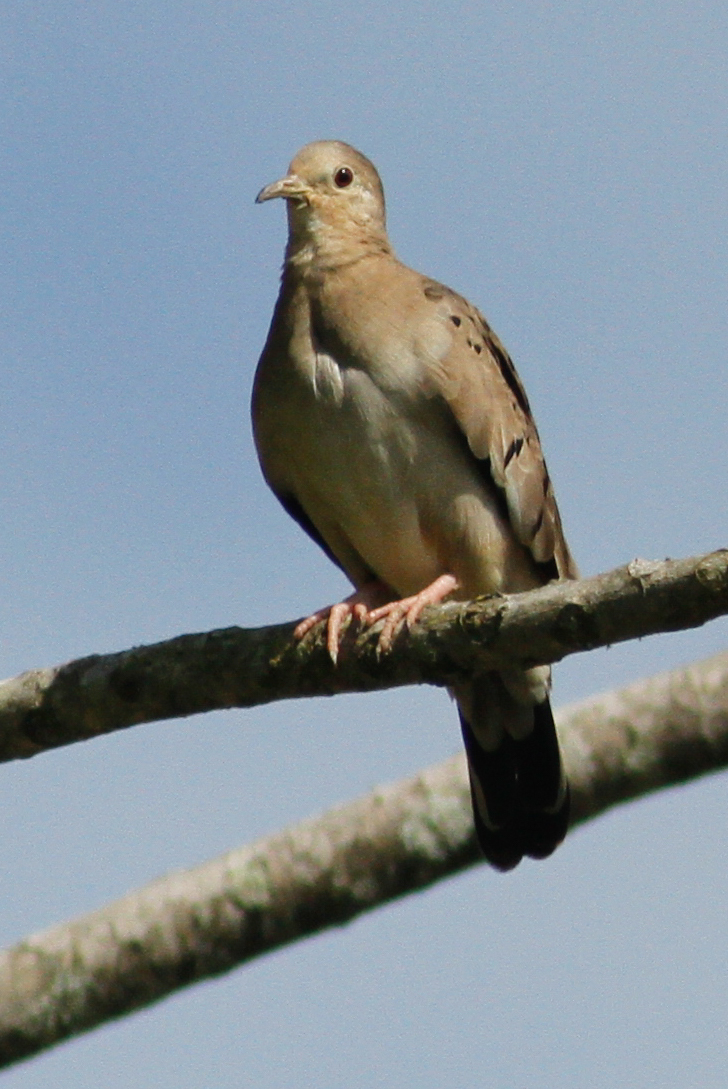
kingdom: Animalia
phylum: Chordata
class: Aves
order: Columbiformes
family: Columbidae
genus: Columbina
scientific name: Columbina buckleyi
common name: Ecuadorian ground dove
